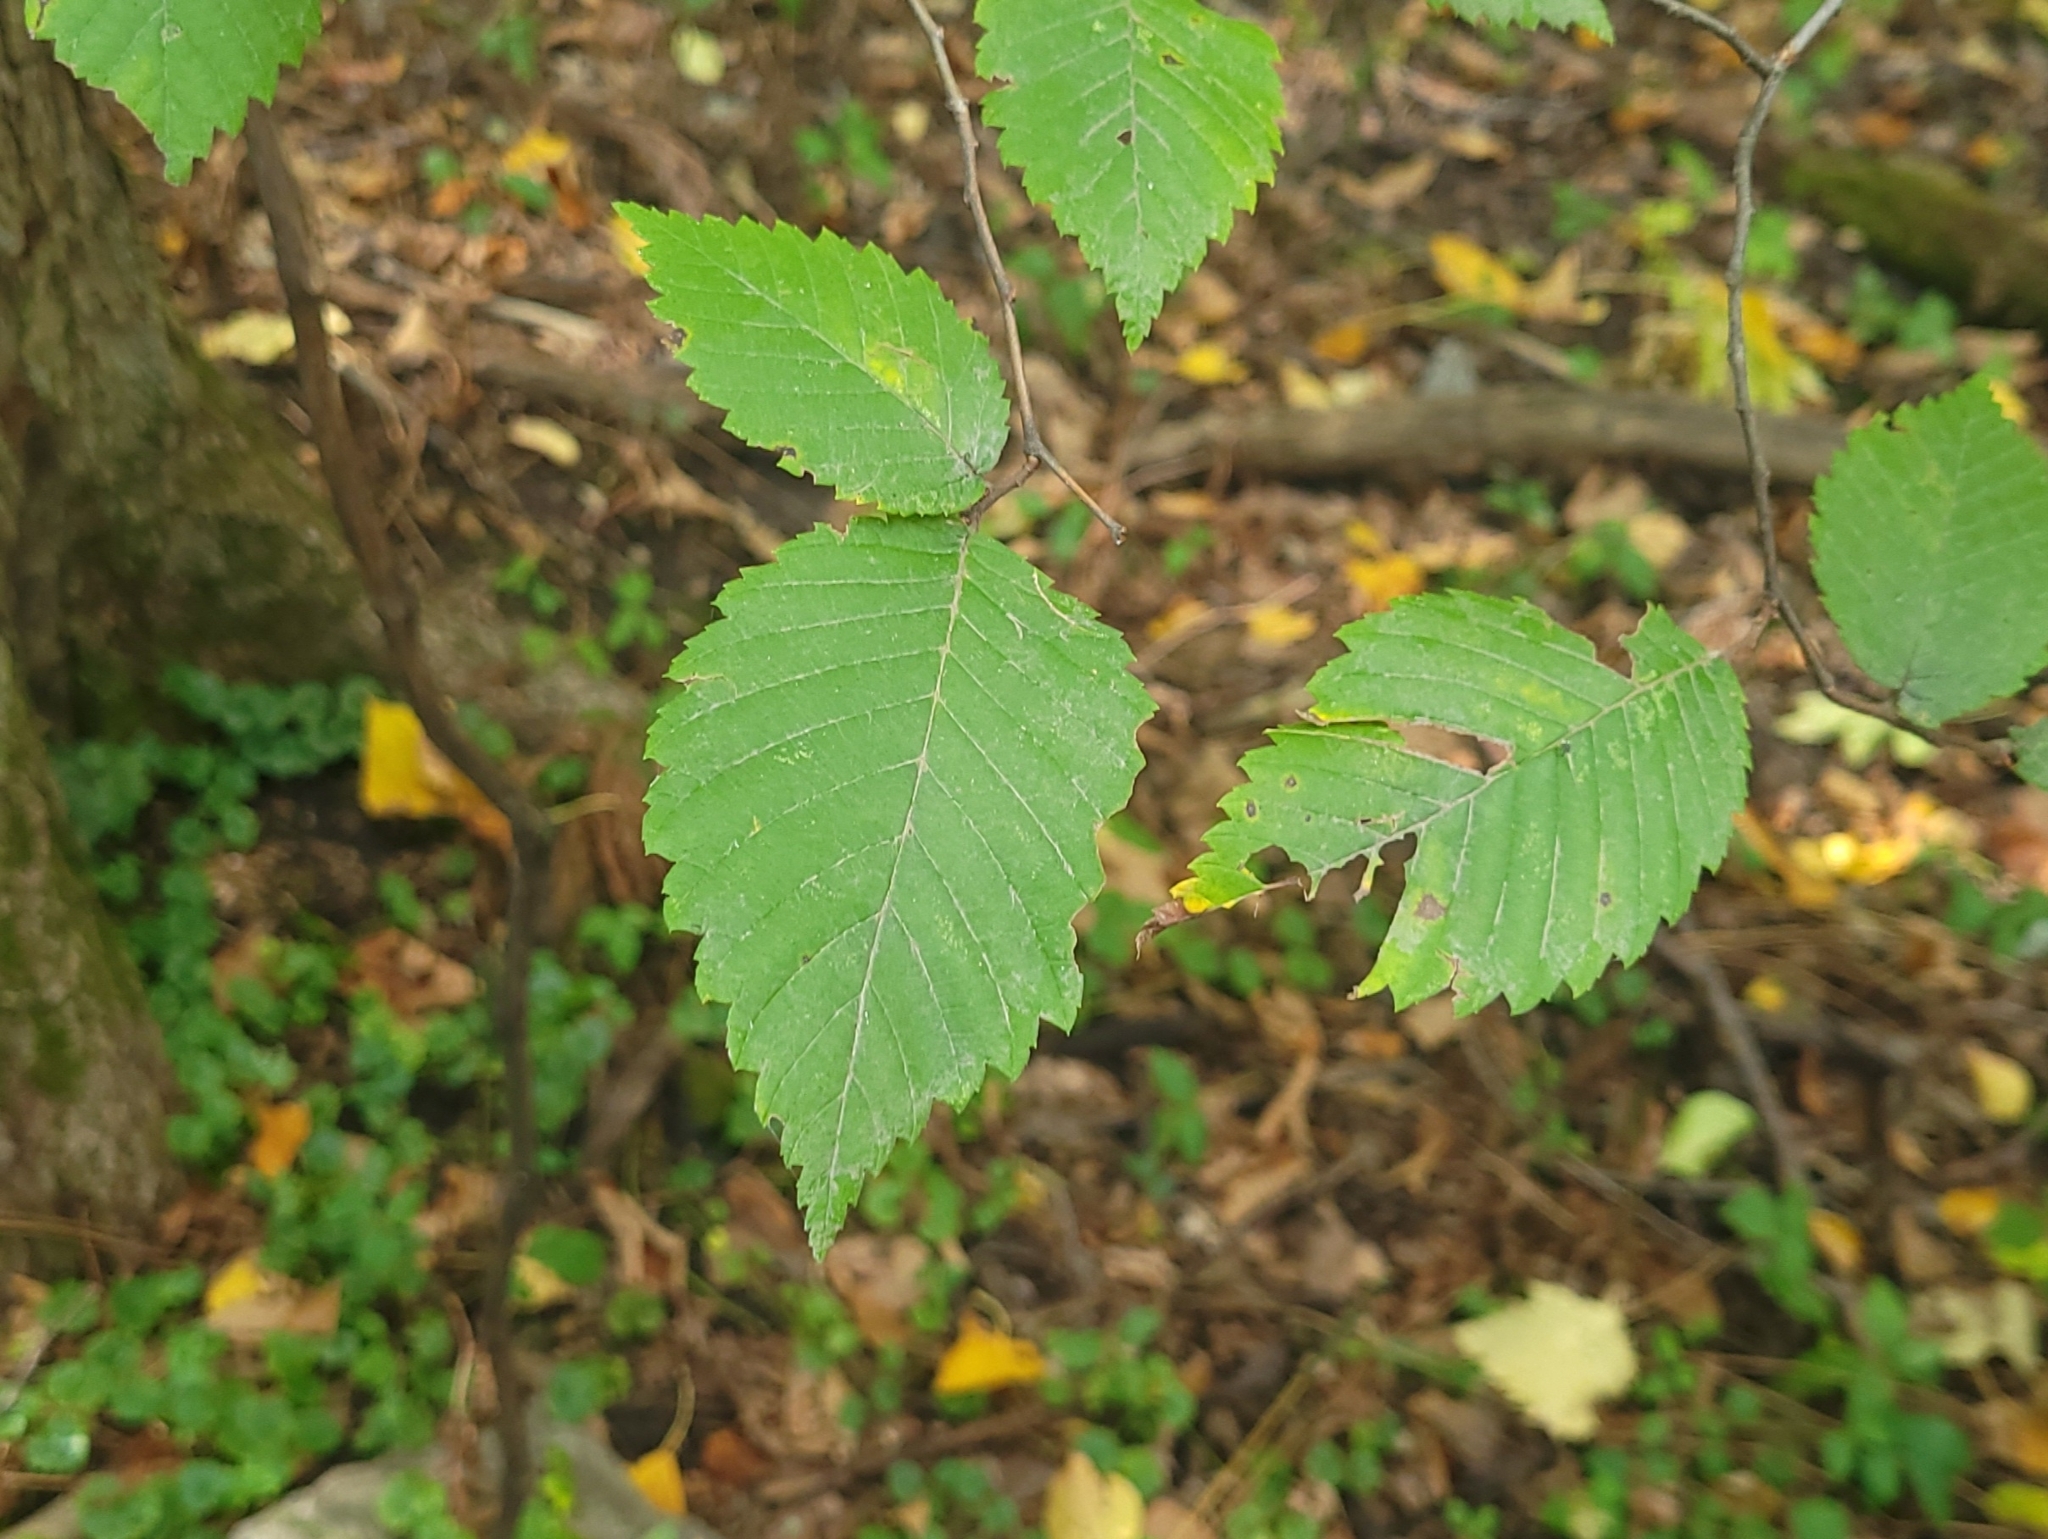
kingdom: Plantae
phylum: Tracheophyta
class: Magnoliopsida
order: Rosales
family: Ulmaceae
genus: Ulmus
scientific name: Ulmus americana
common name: American elm
